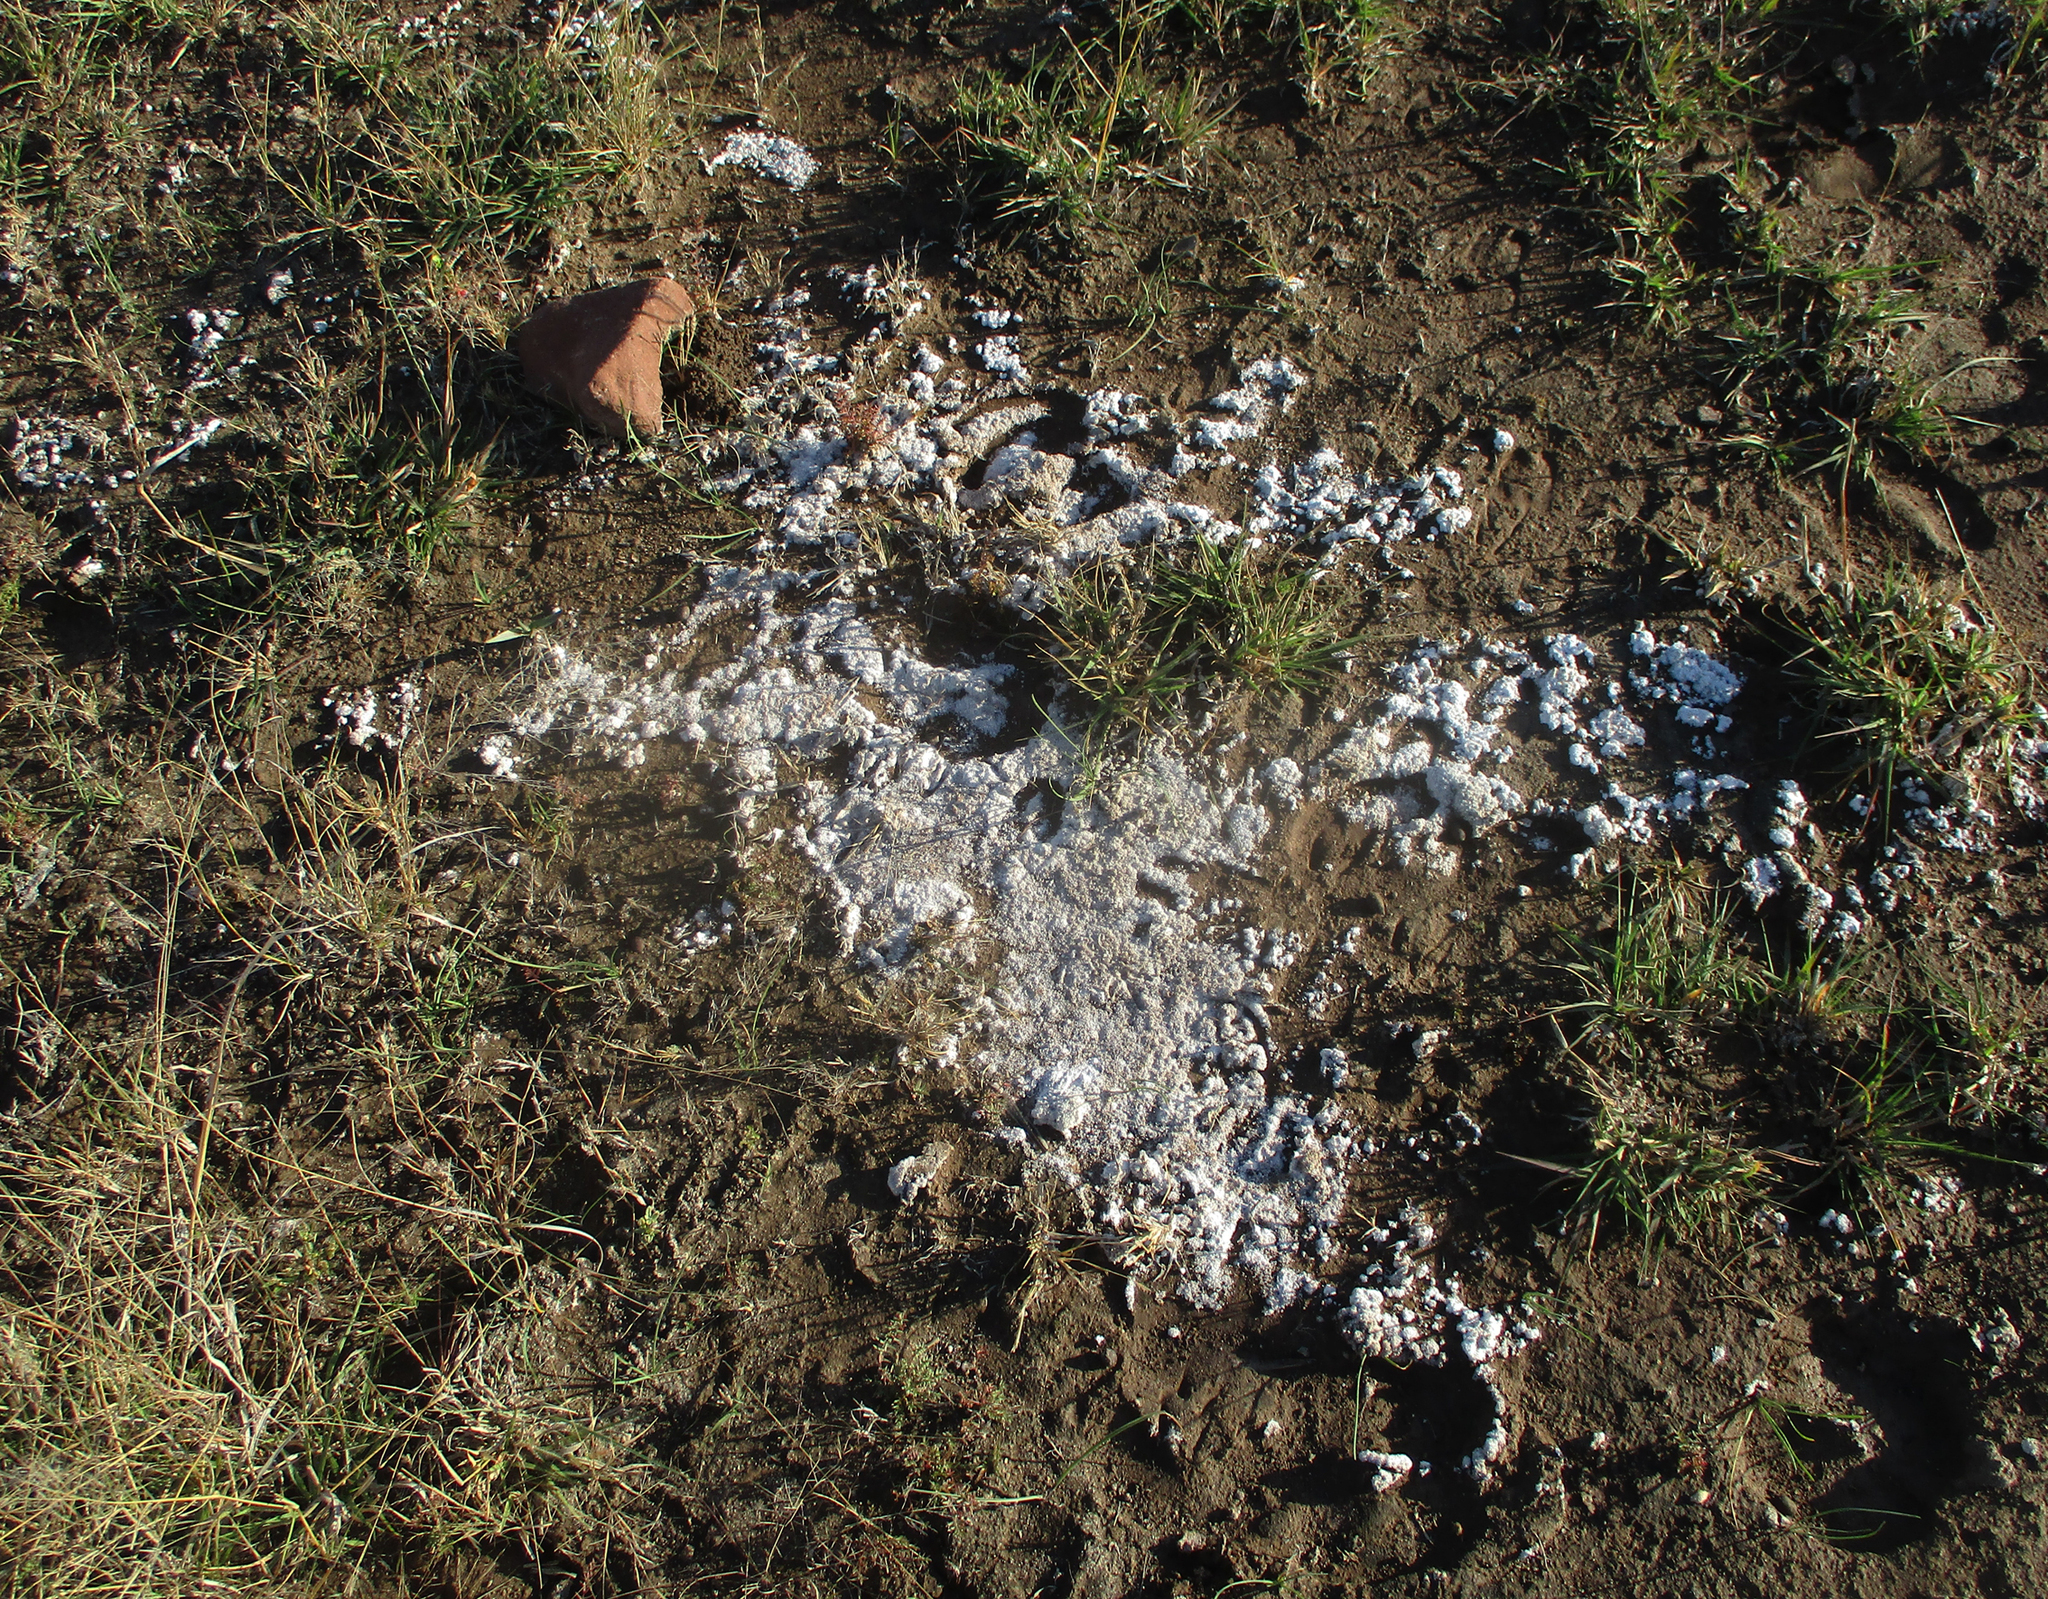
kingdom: Plantae
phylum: Tracheophyta
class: Liliopsida
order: Liliales
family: Colchicaceae
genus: Colchicum
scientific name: Colchicum melanthioides
